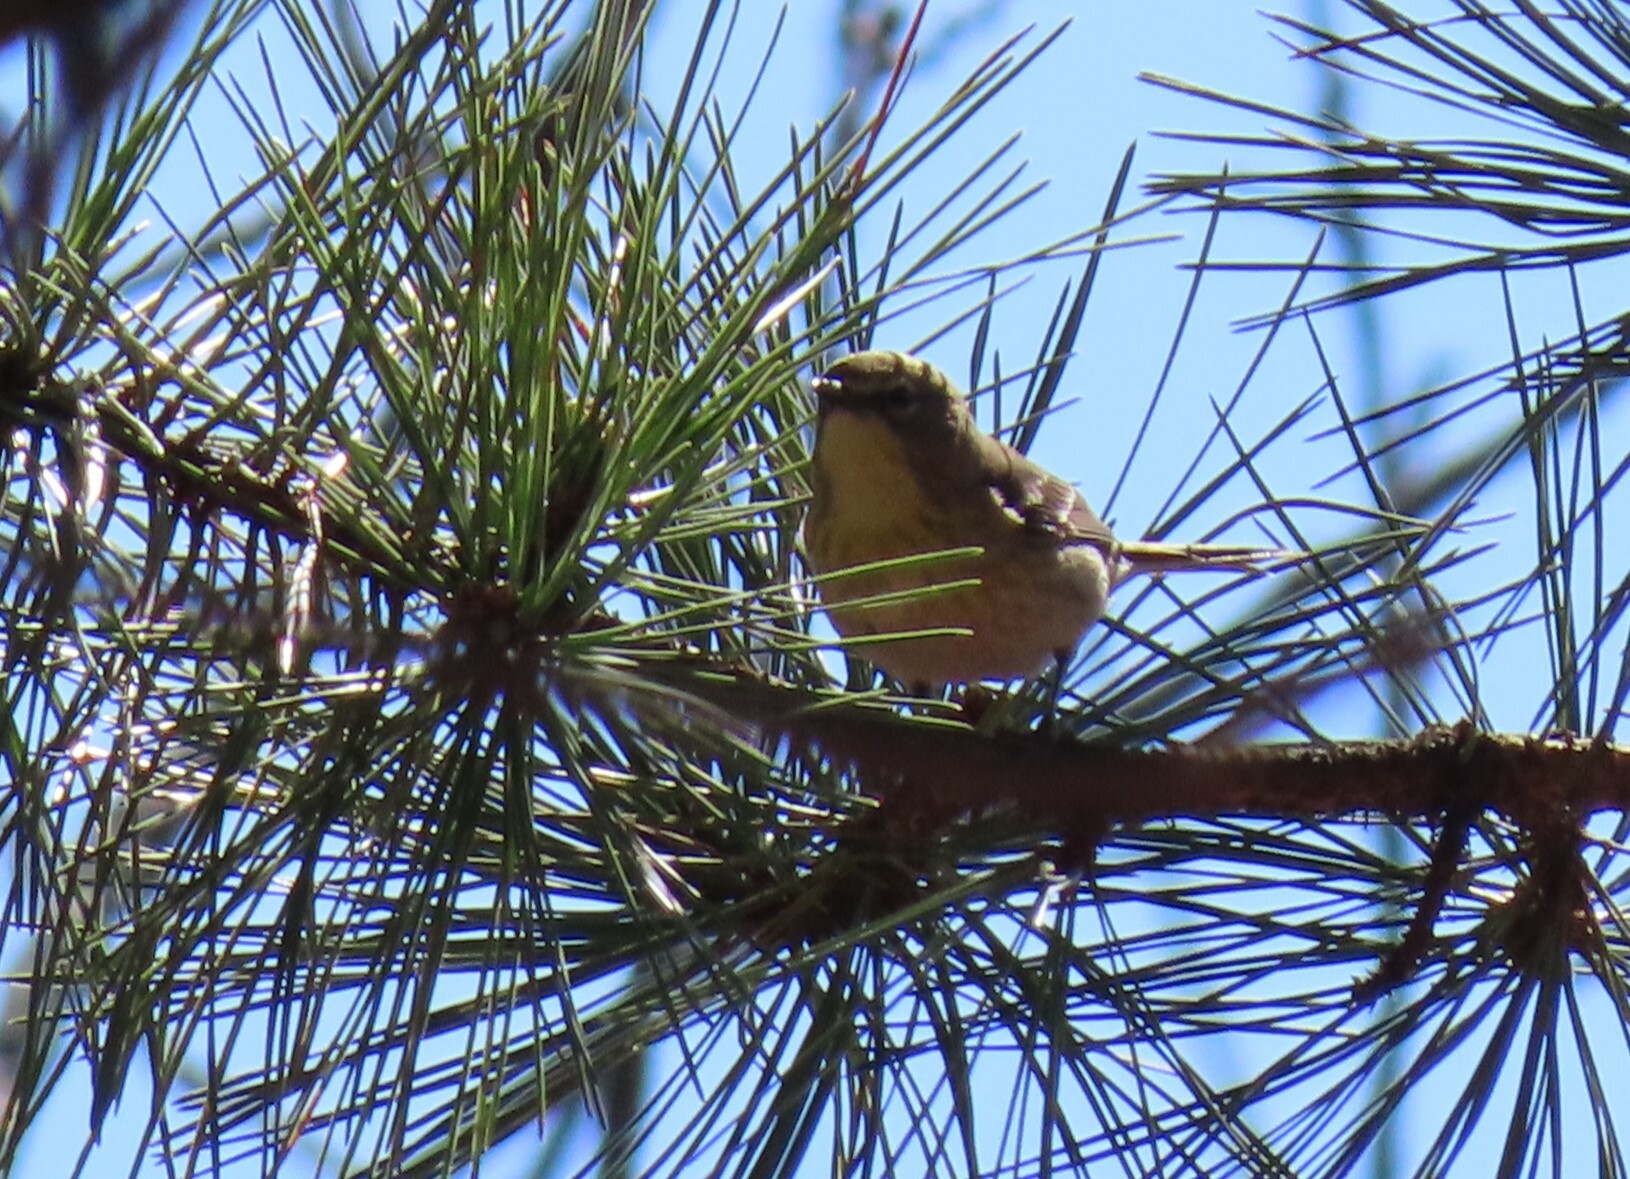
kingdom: Animalia
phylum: Chordata
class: Aves
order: Passeriformes
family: Parulidae
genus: Setophaga
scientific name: Setophaga pinus
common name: Pine warbler
